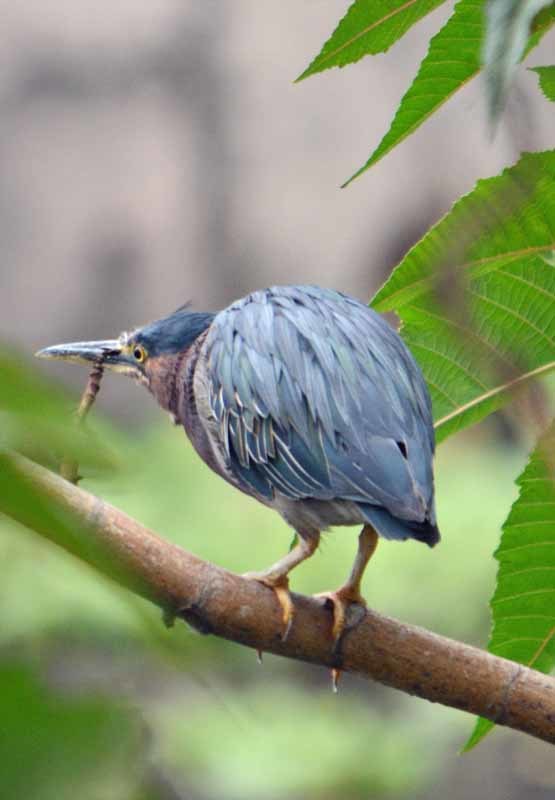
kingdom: Animalia
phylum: Chordata
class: Aves
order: Pelecaniformes
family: Ardeidae
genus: Butorides
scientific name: Butorides virescens
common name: Green heron
